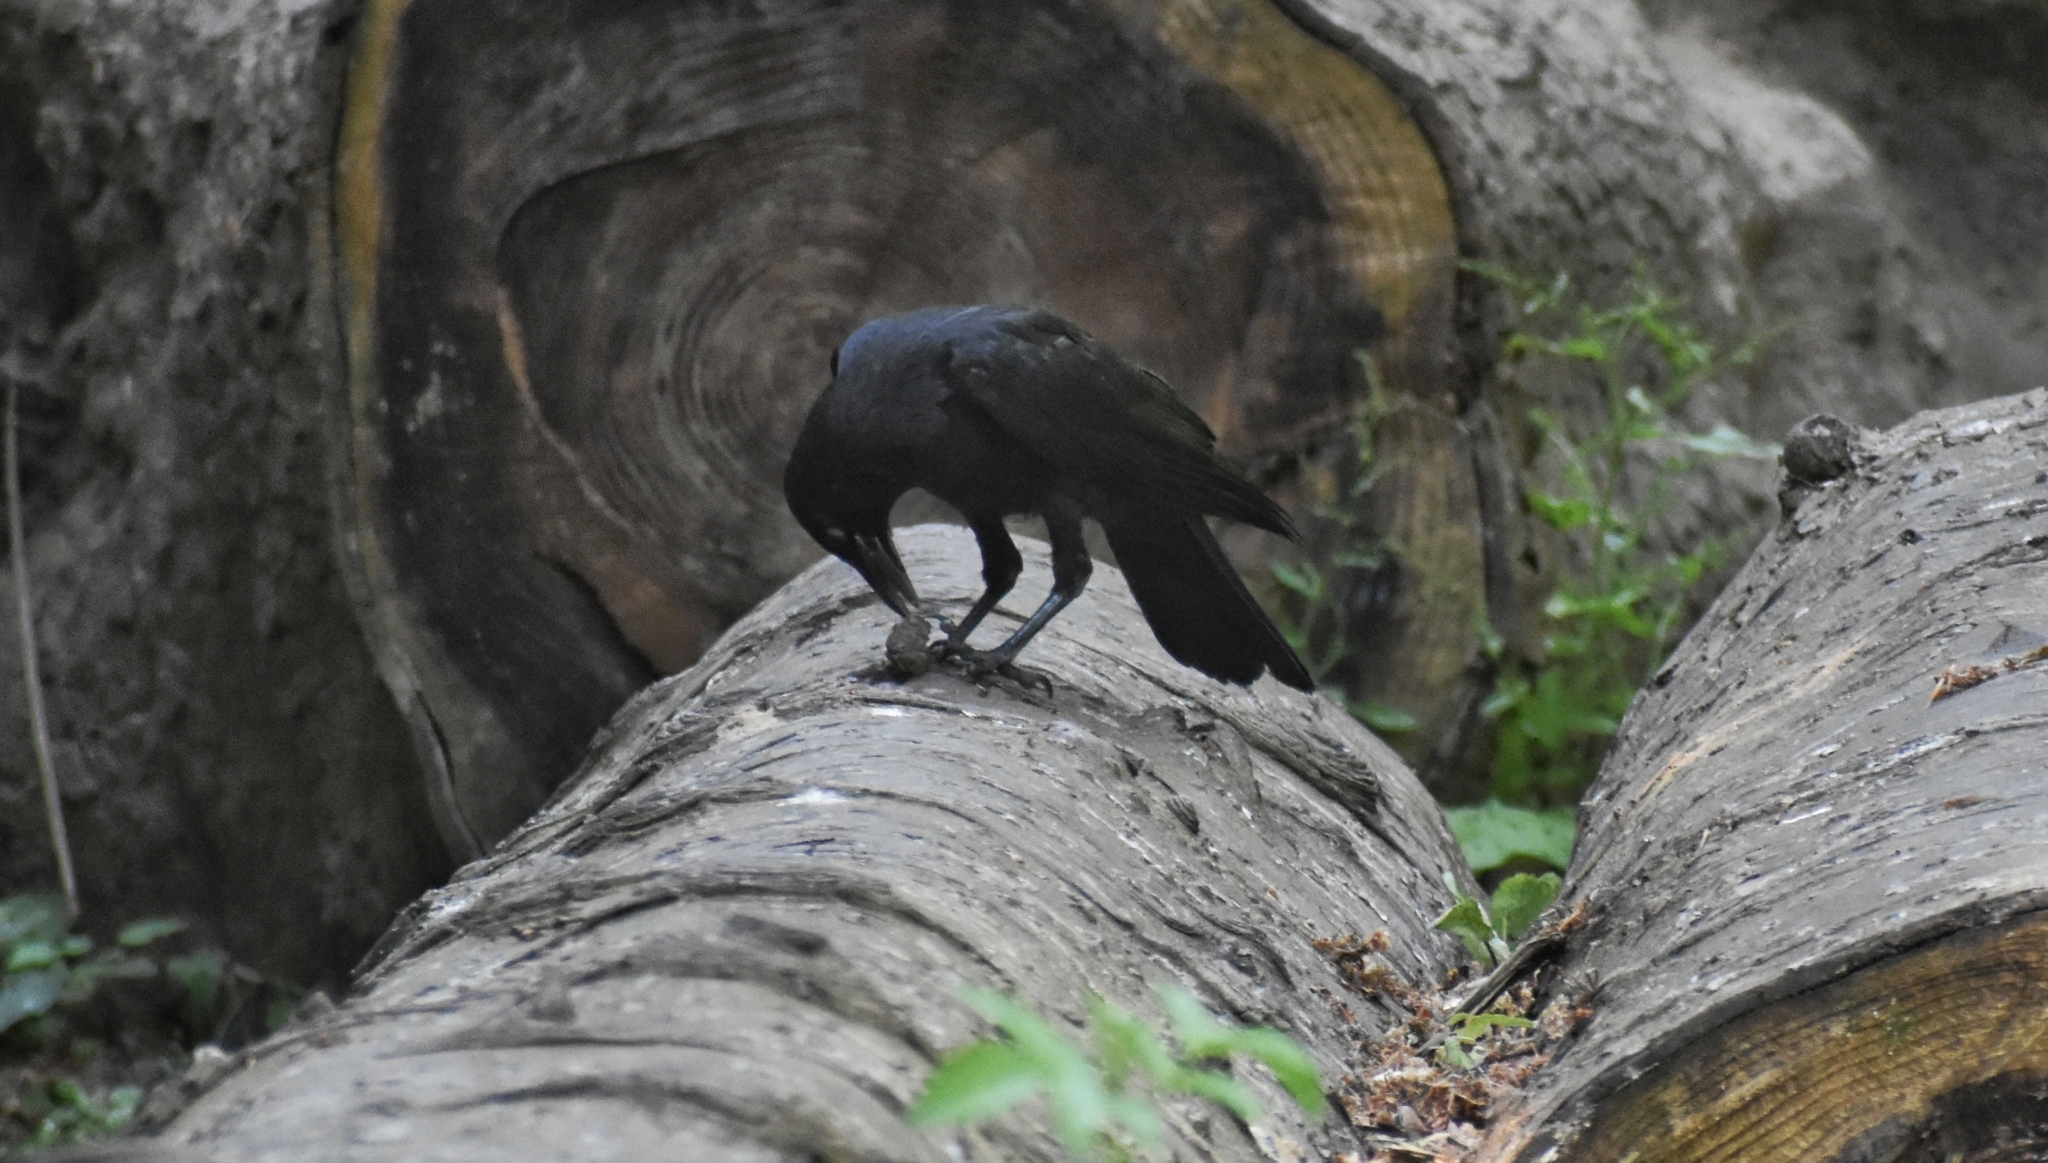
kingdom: Animalia
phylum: Chordata
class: Aves
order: Passeriformes
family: Corvidae
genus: Corvus
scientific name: Corvus corone
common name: Carrion crow
